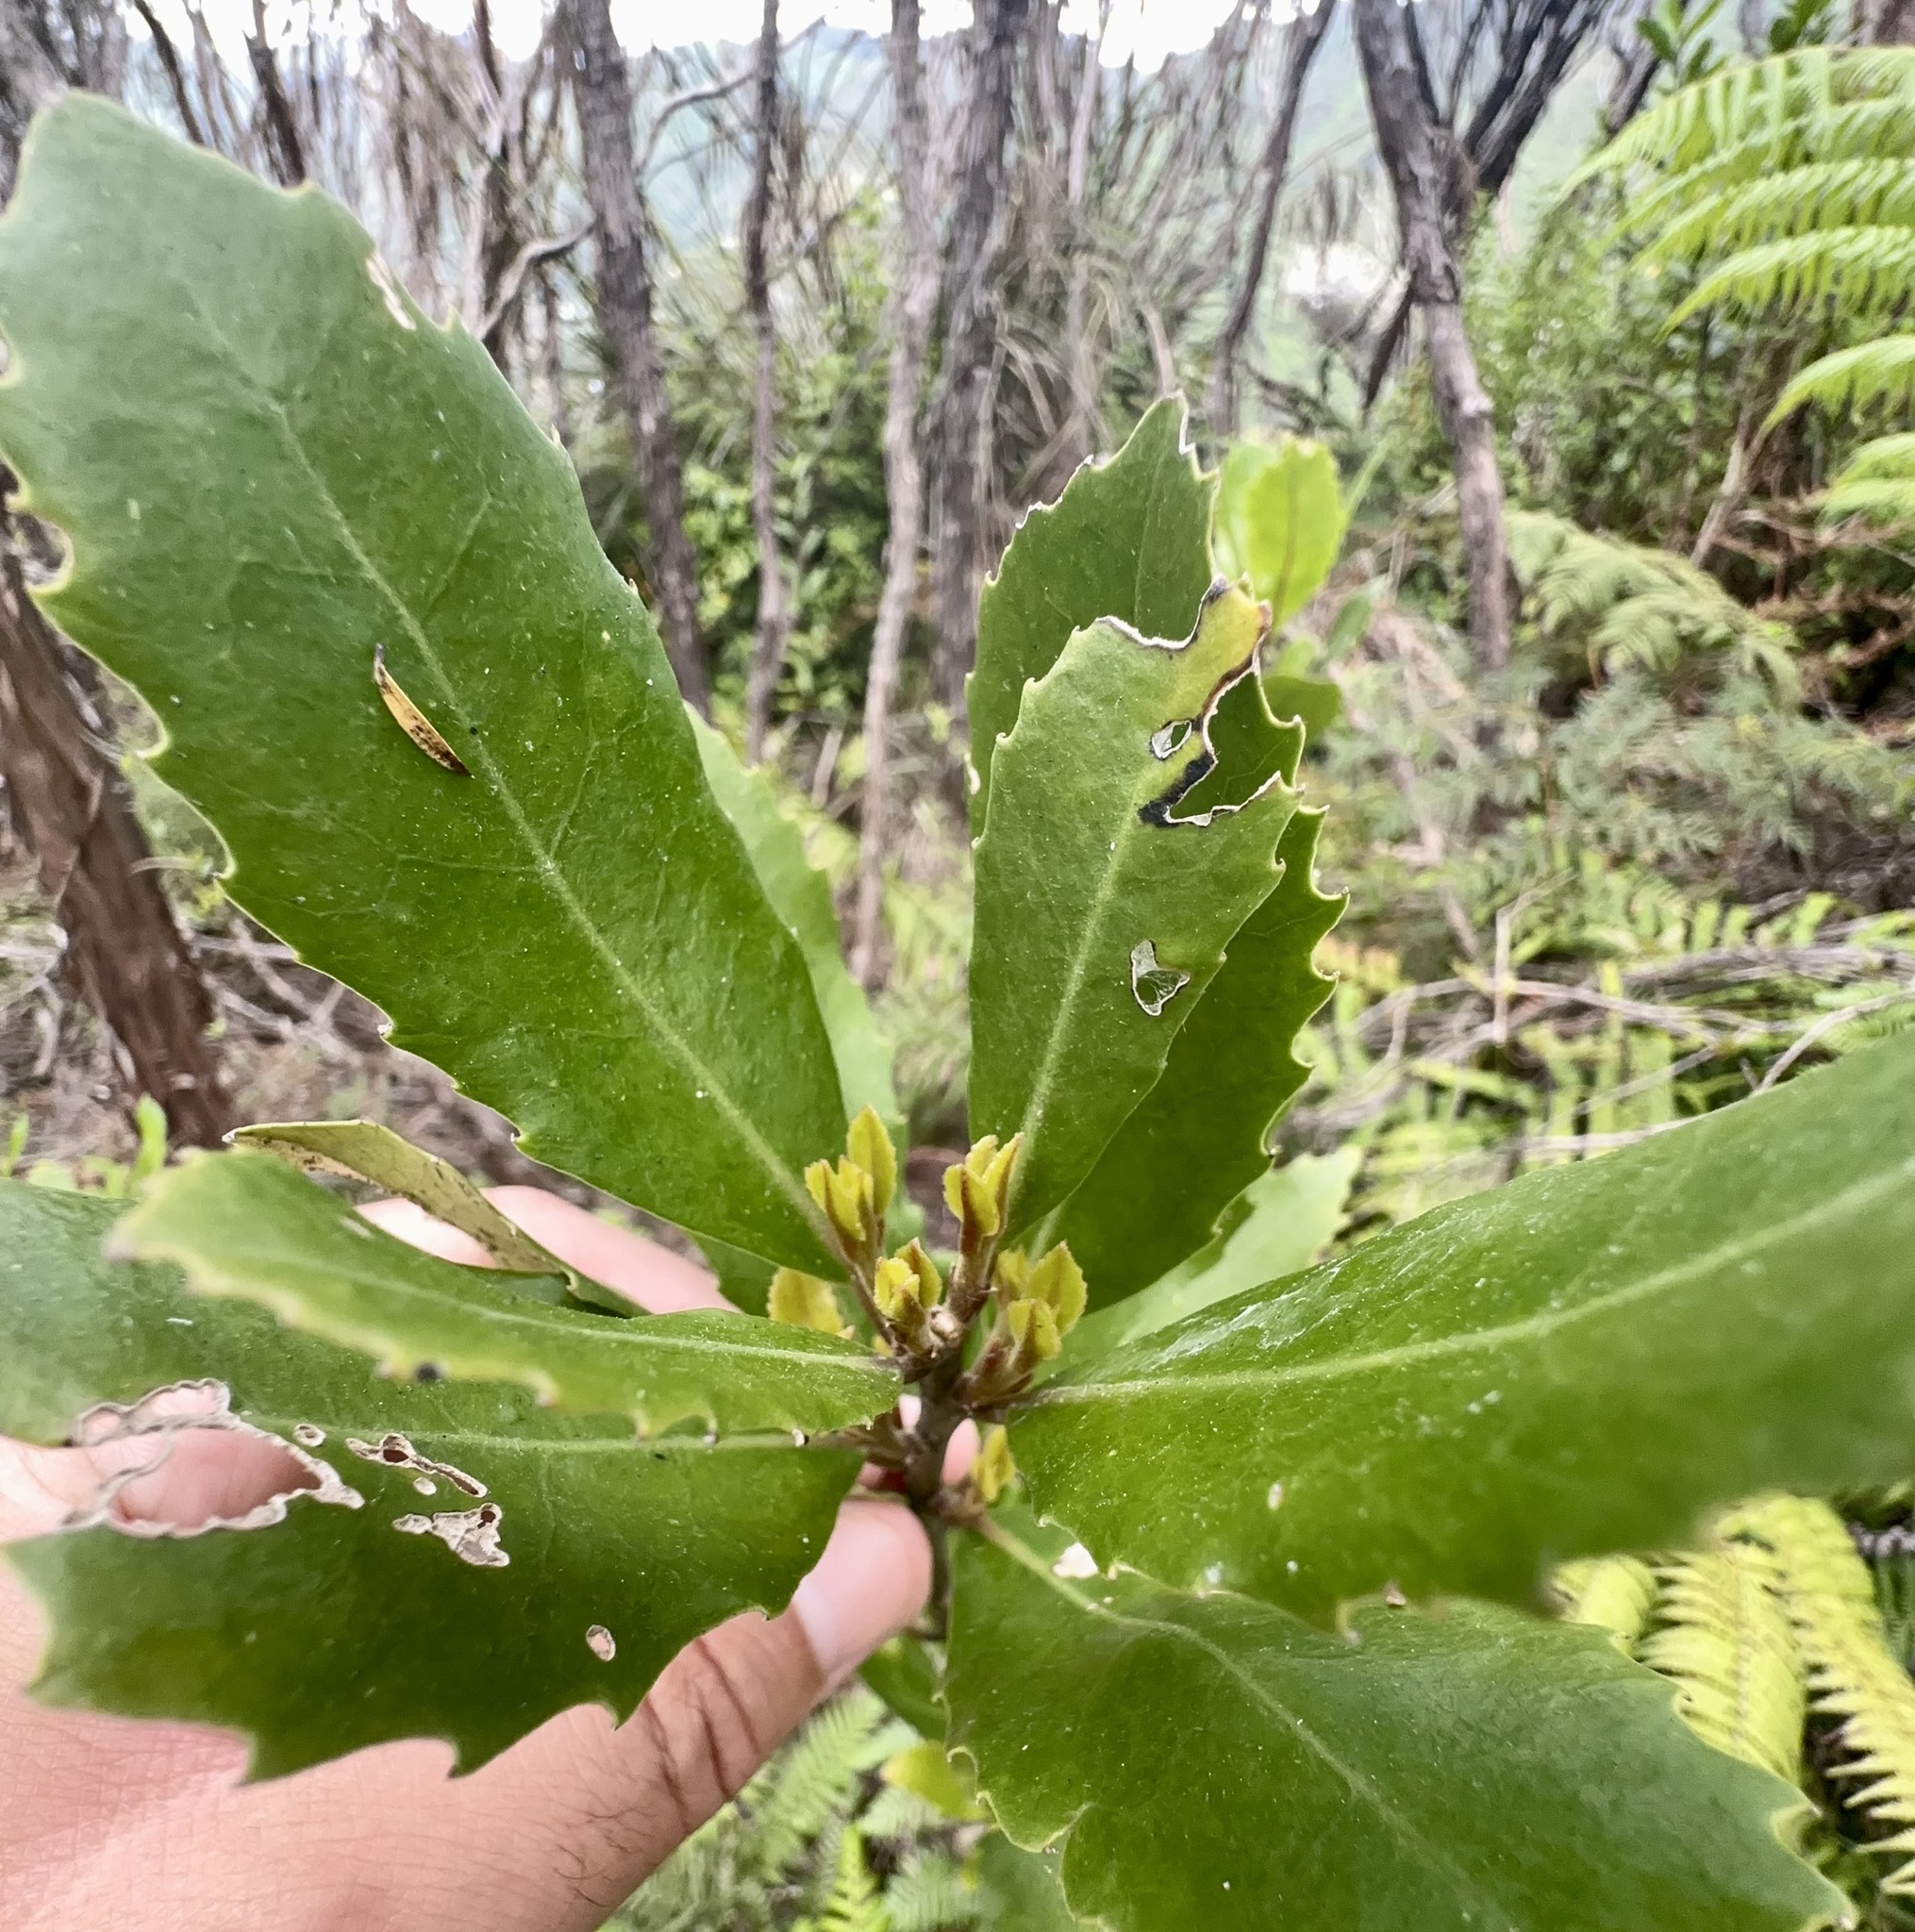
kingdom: Plantae
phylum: Tracheophyta
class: Magnoliopsida
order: Laurales
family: Monimiaceae
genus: Hedycarya
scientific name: Hedycarya arborea
